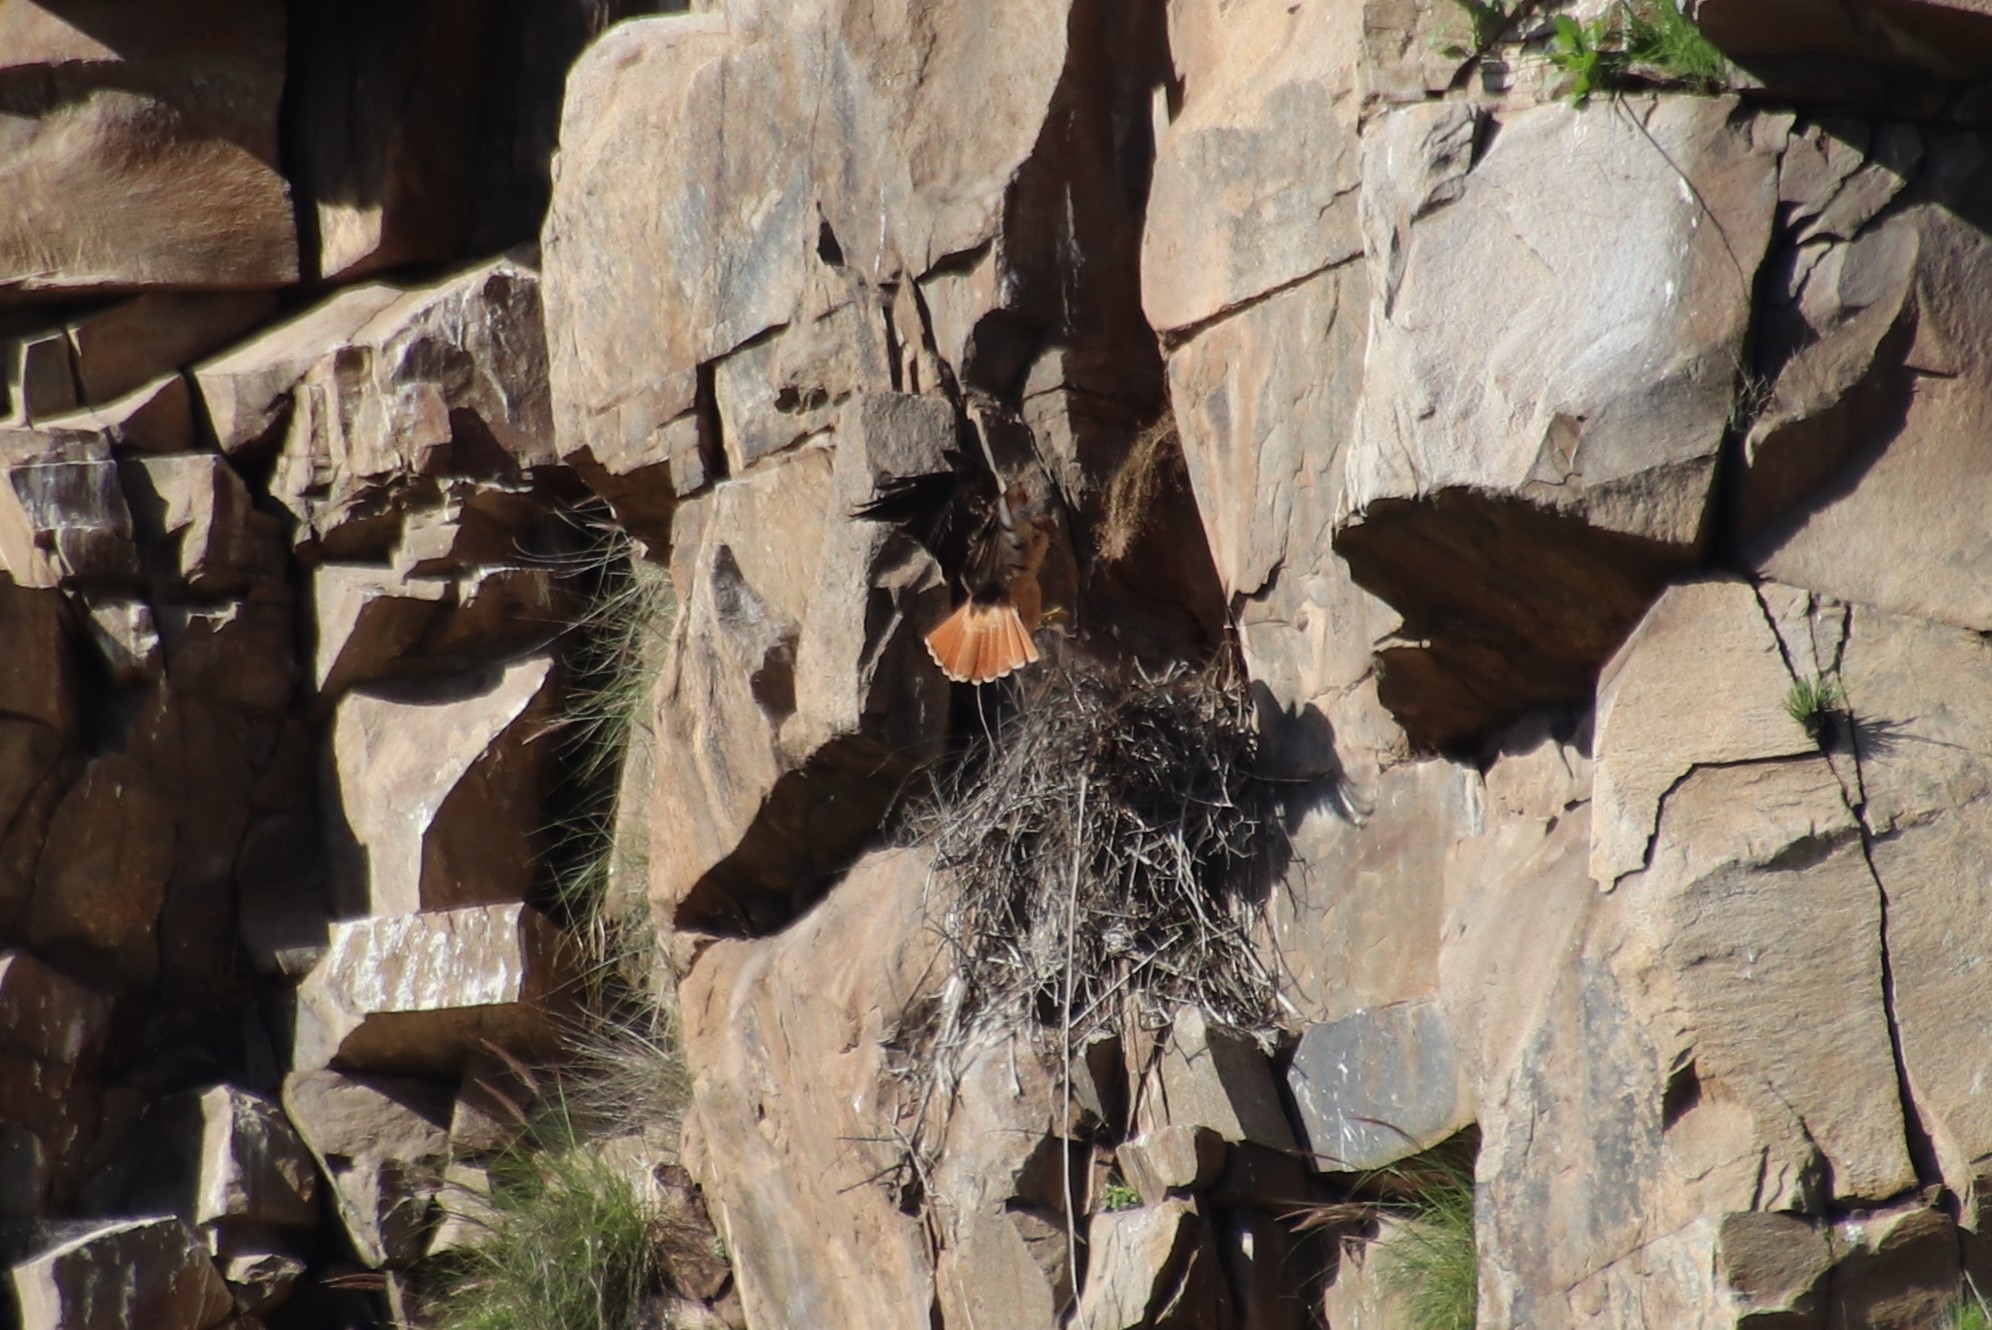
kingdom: Animalia
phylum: Chordata
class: Aves
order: Accipitriformes
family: Accipitridae
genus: Buteo
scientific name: Buteo jamaicensis
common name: Red-tailed hawk
